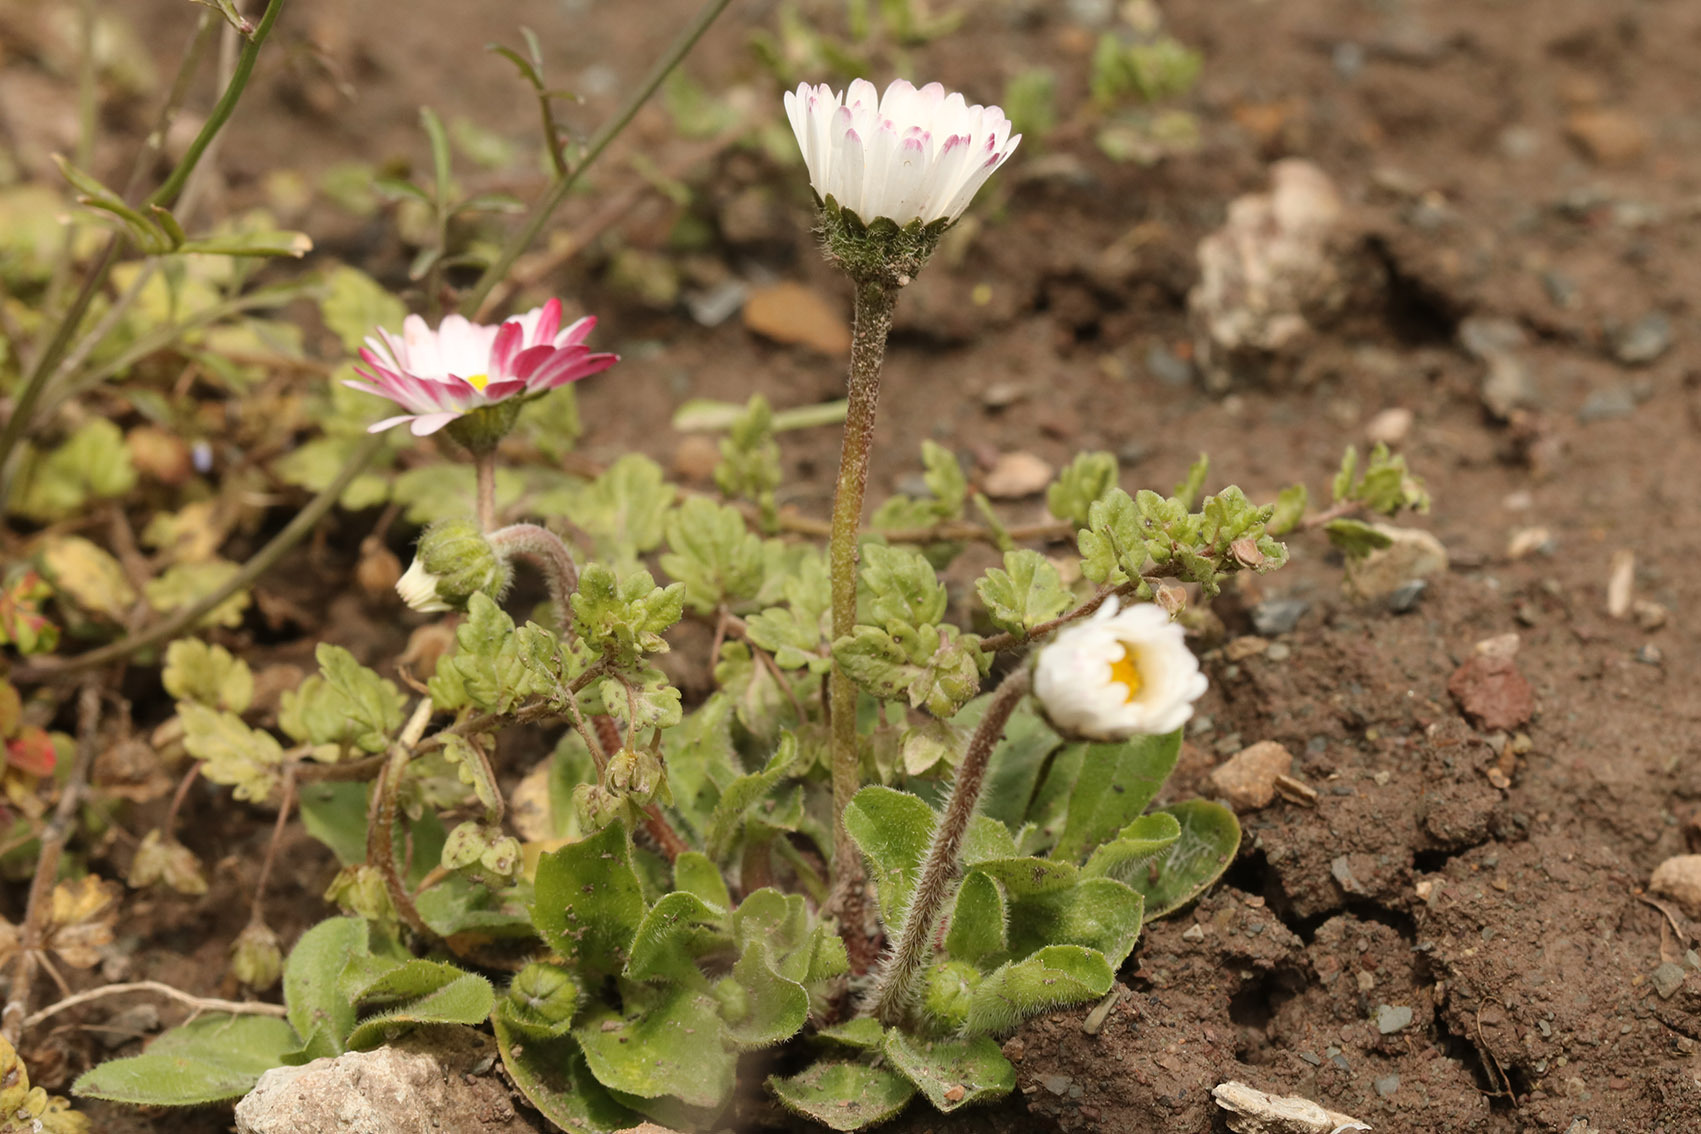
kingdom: Plantae
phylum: Tracheophyta
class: Magnoliopsida
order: Asterales
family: Asteraceae
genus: Bellis
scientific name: Bellis perennis
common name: Lawndaisy
